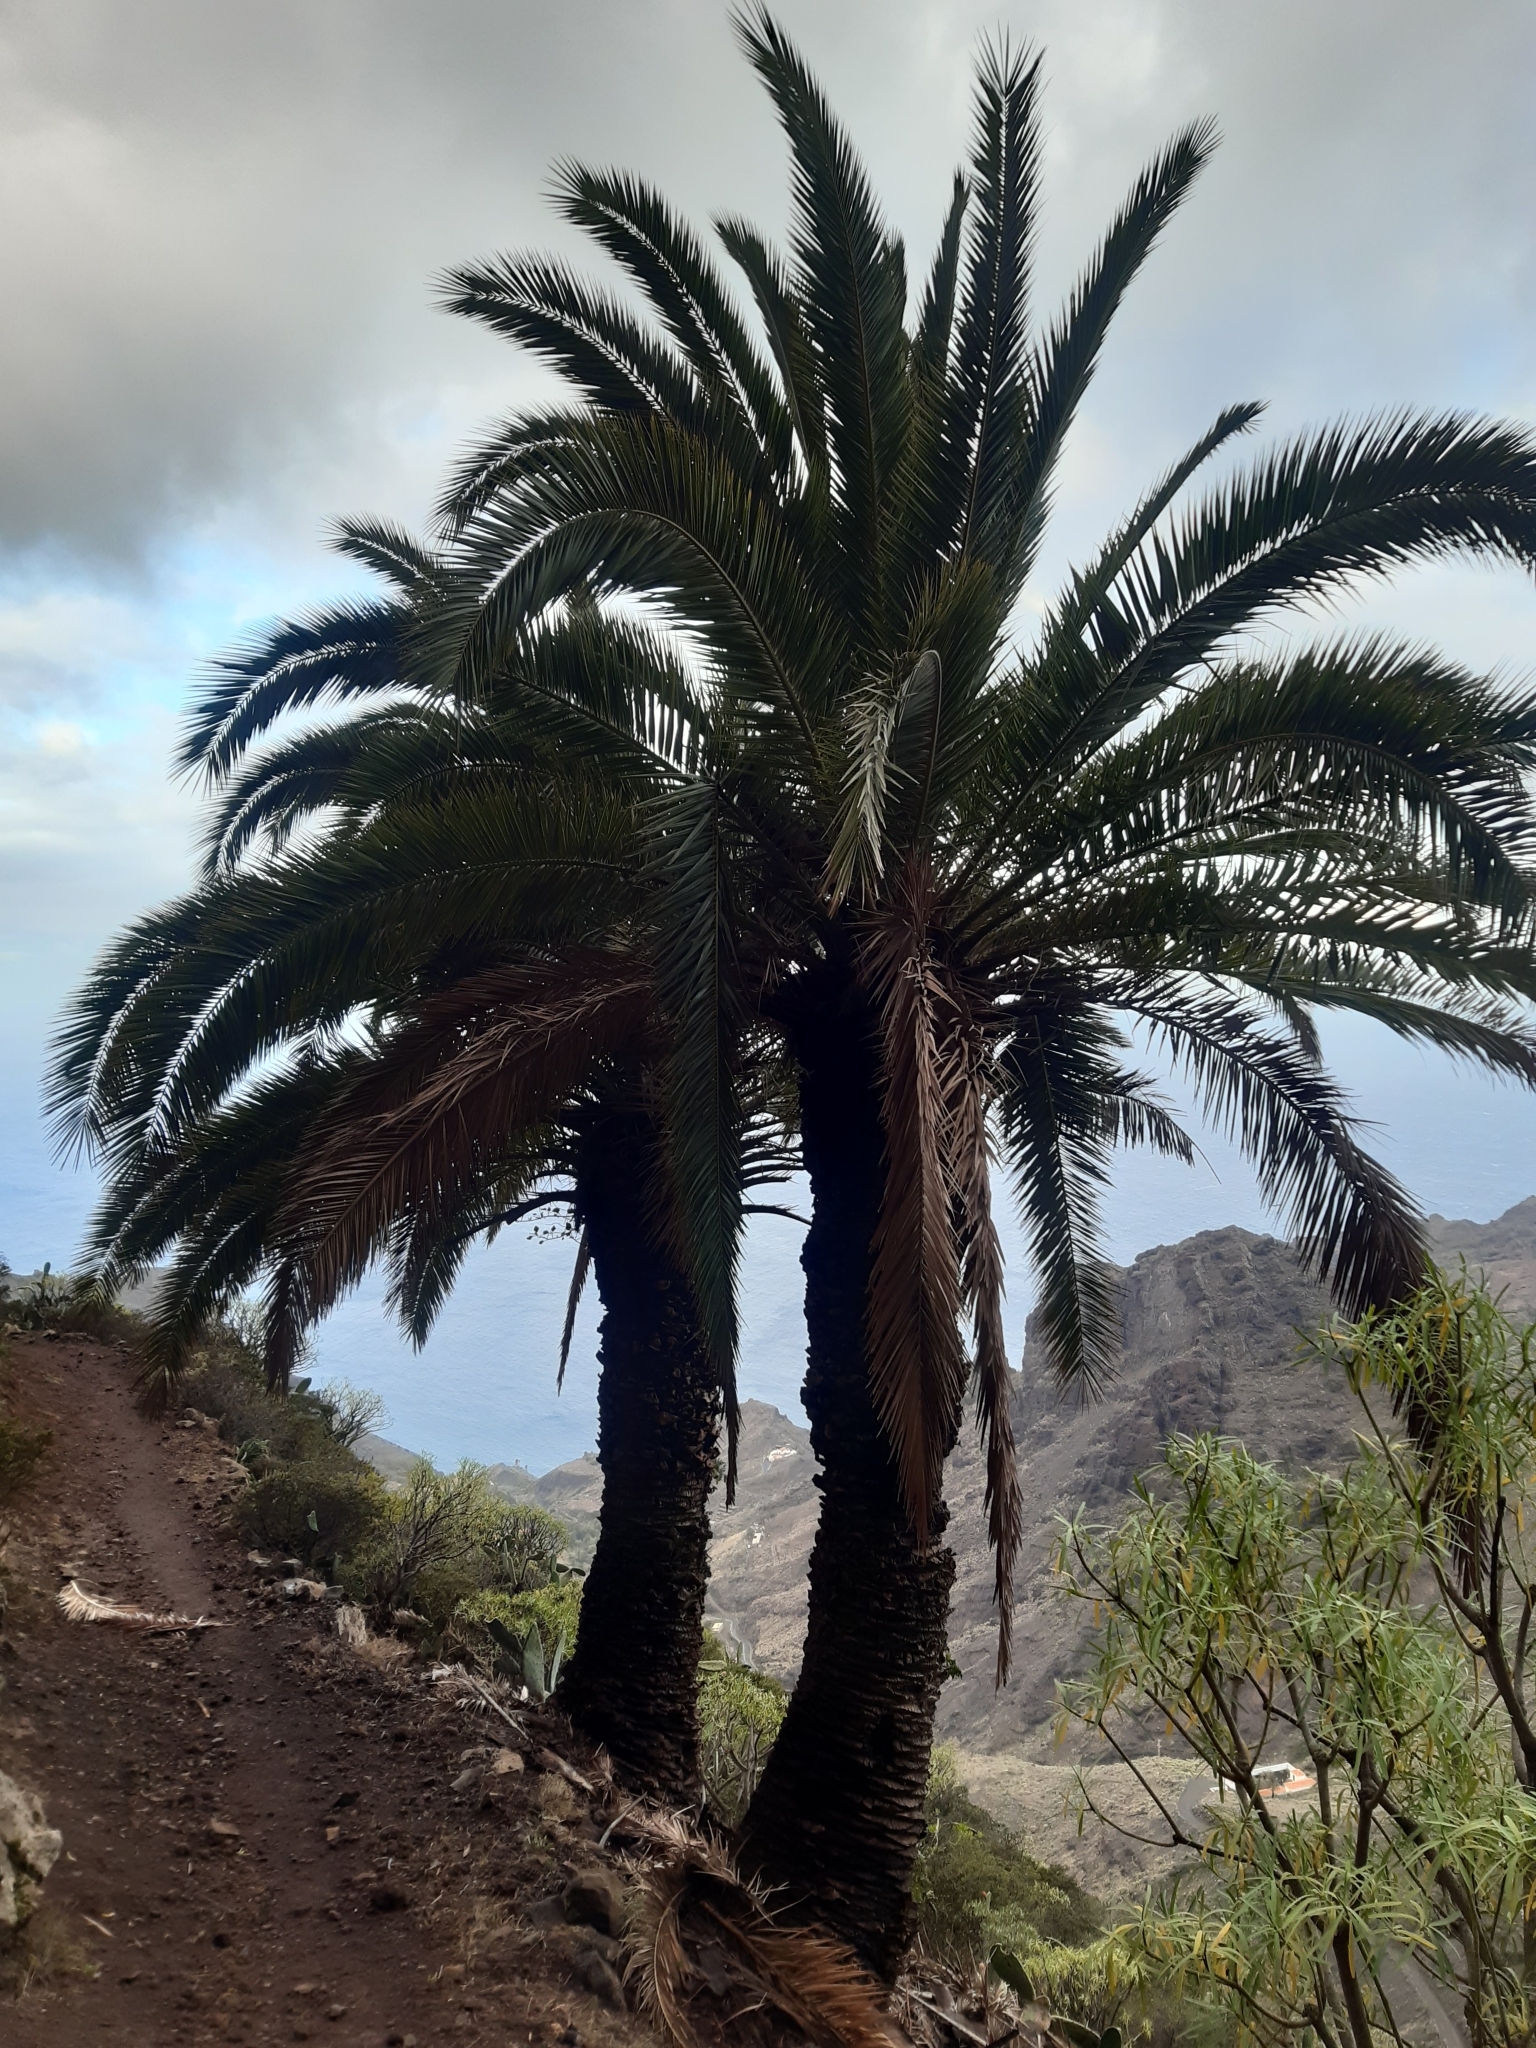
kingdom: Plantae
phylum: Tracheophyta
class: Liliopsida
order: Arecales
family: Arecaceae
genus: Phoenix
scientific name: Phoenix canariensis
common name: Canary island date palm
